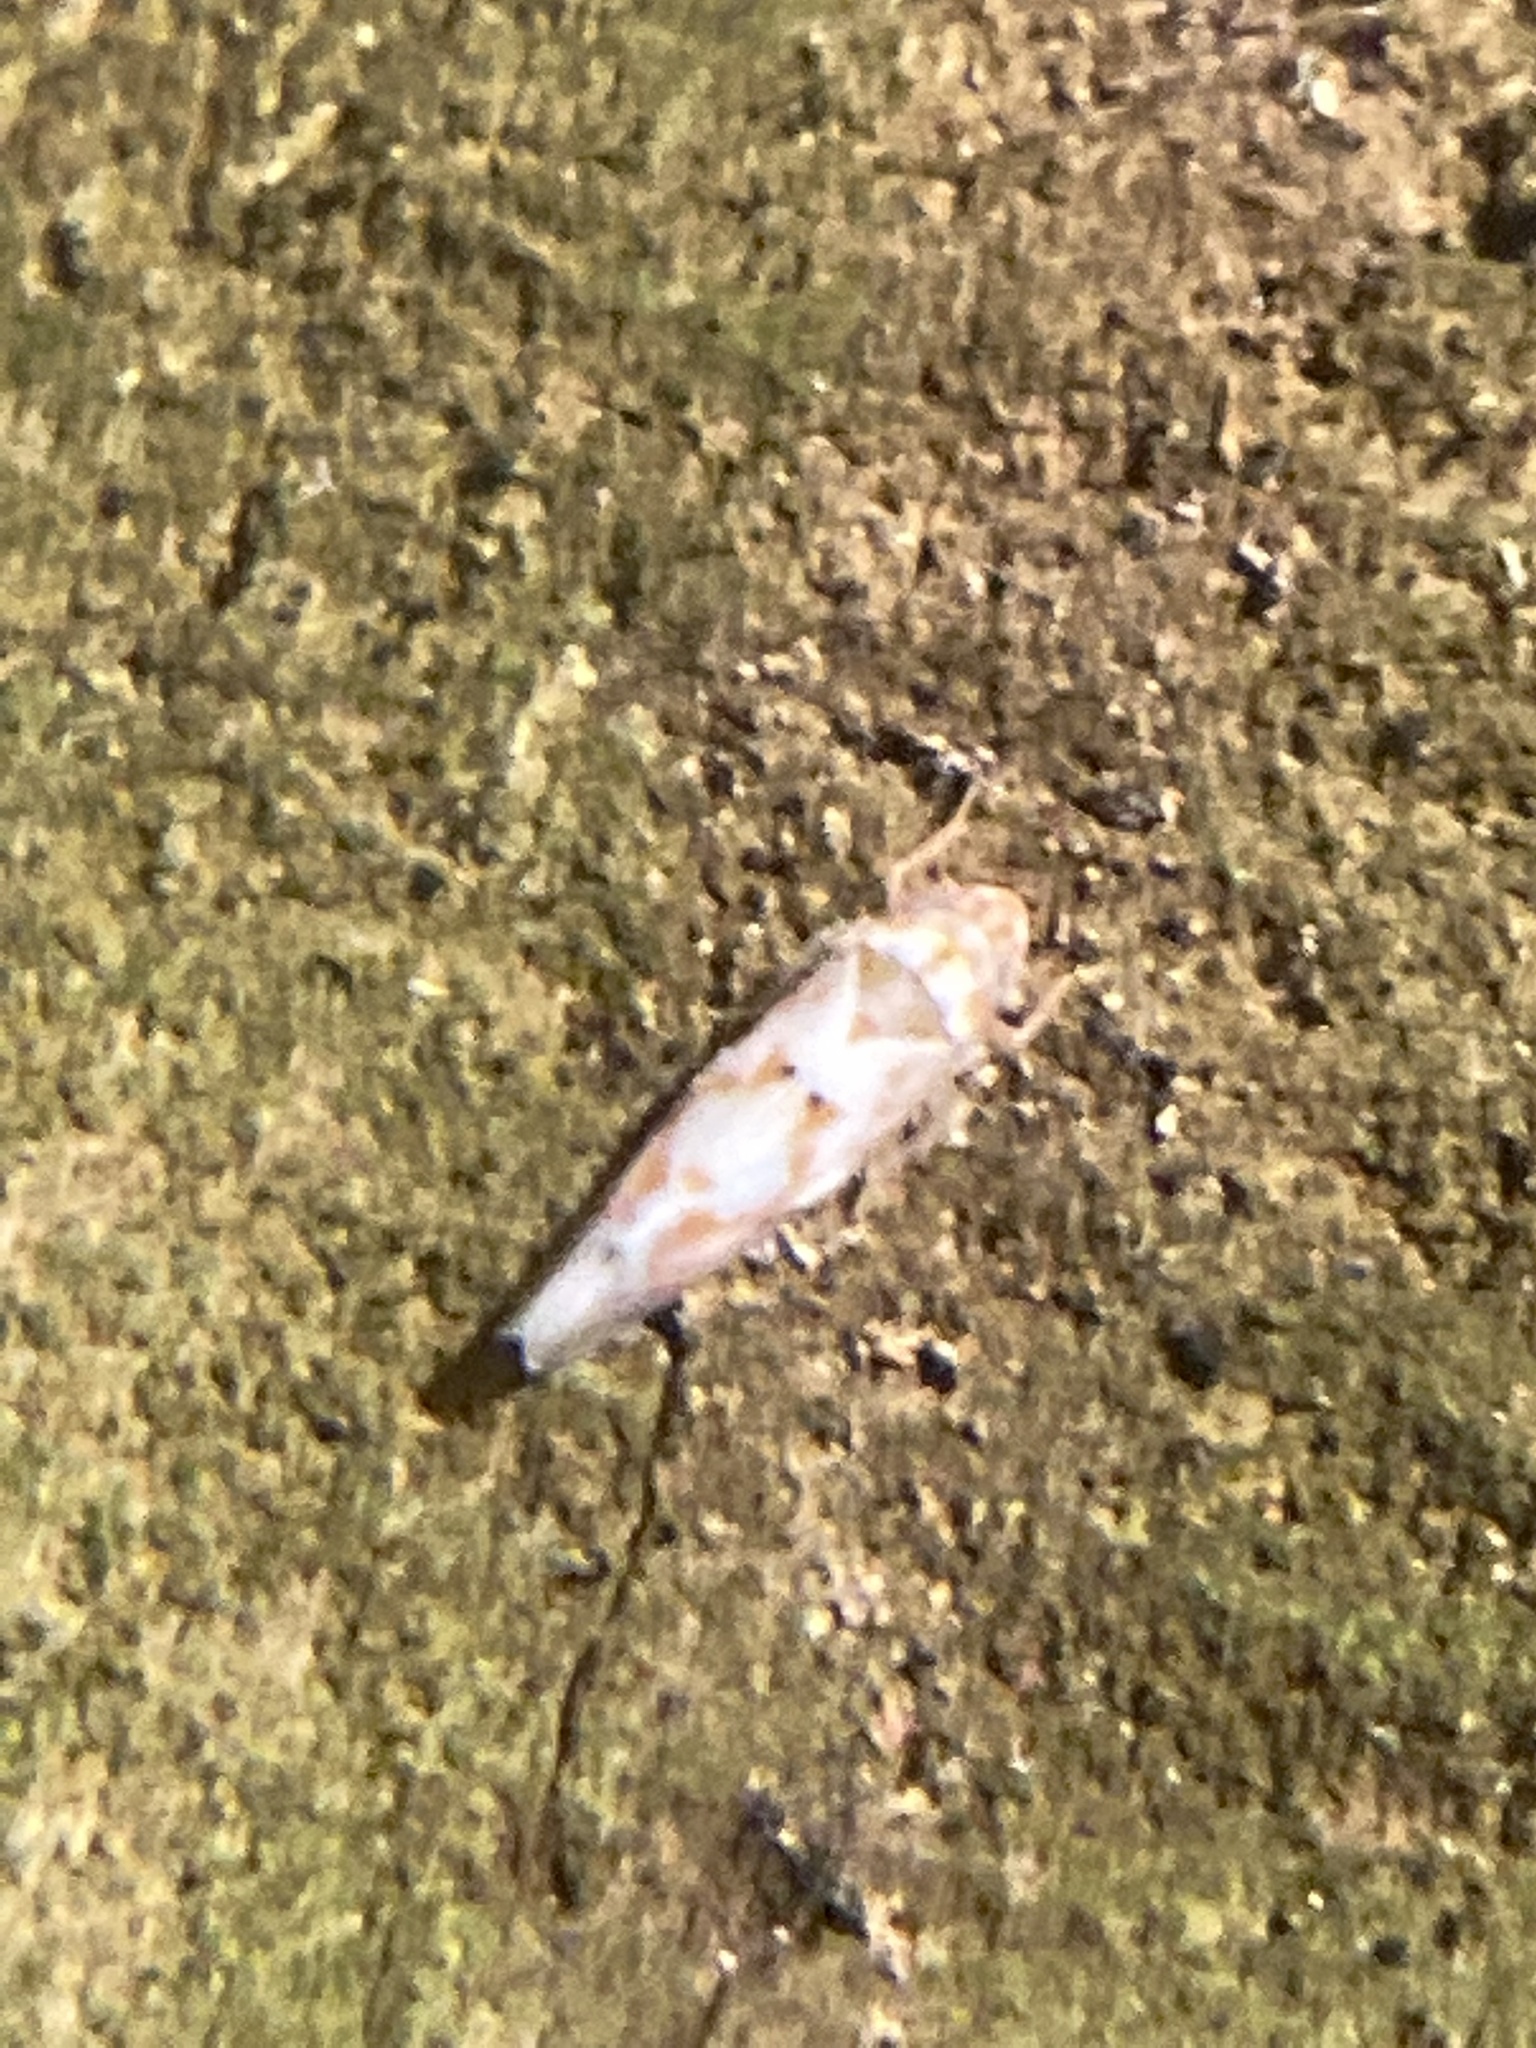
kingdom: Animalia
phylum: Arthropoda
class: Insecta
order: Hemiptera
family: Cicadellidae
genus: Erythroneura
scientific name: Erythroneura delicata
